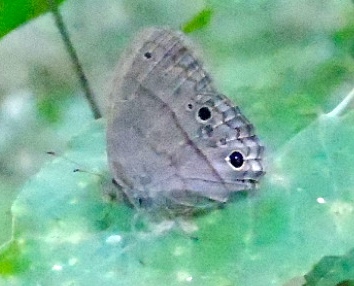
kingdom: Animalia
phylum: Arthropoda
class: Insecta
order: Lepidoptera
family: Nymphalidae
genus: Hermeuptychia
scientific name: Hermeuptychia
